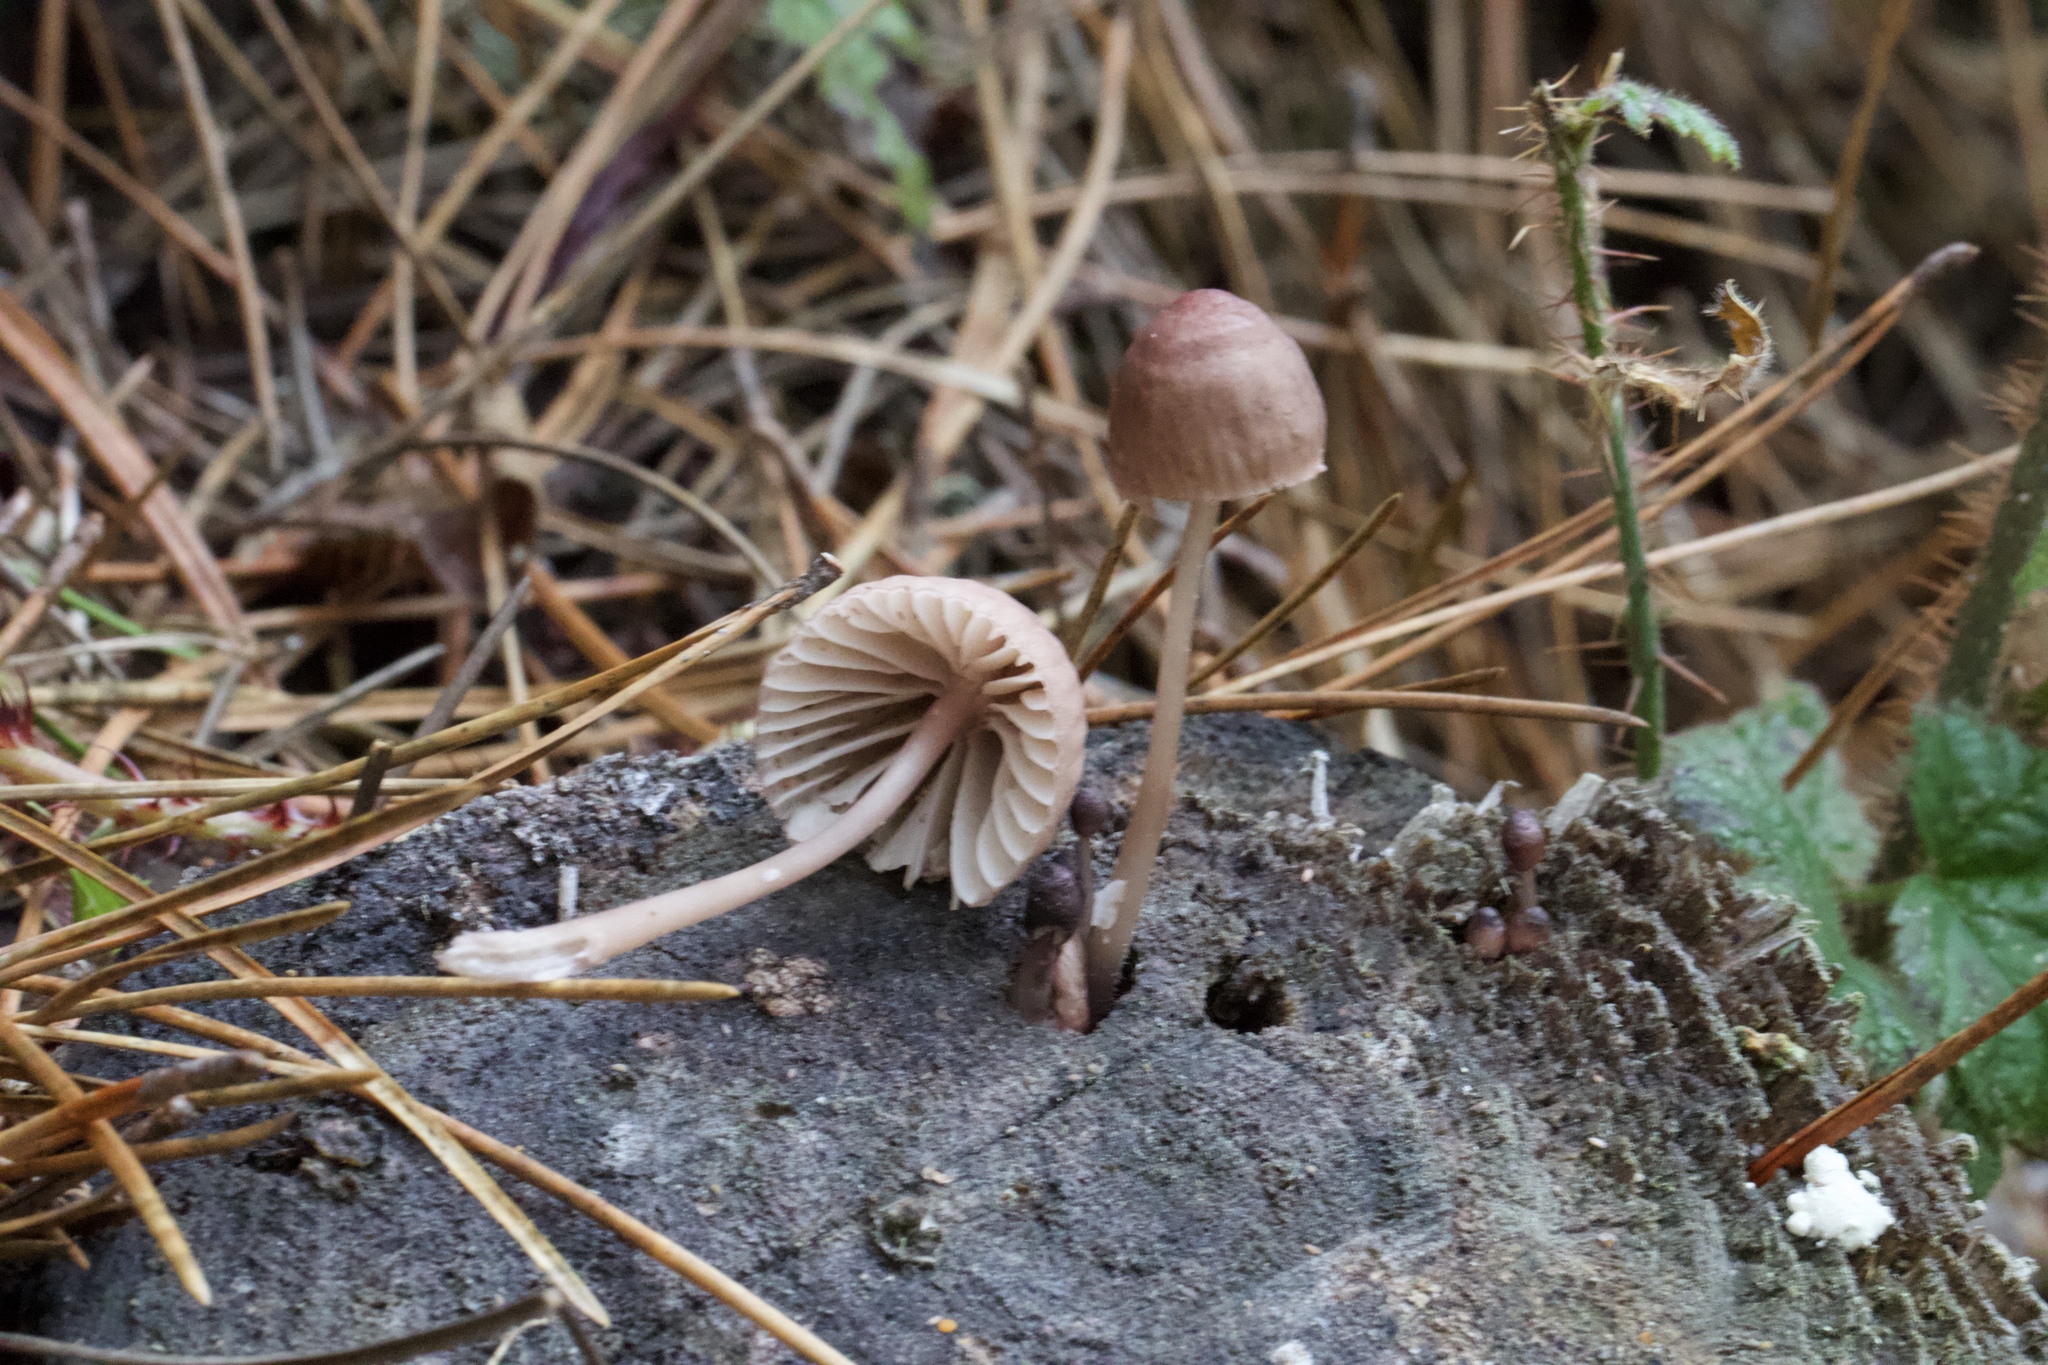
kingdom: Fungi
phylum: Basidiomycota
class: Agaricomycetes
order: Agaricales
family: Mycenaceae
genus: Mycena
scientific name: Mycena haematopus
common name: Burgundydrop bonnet
